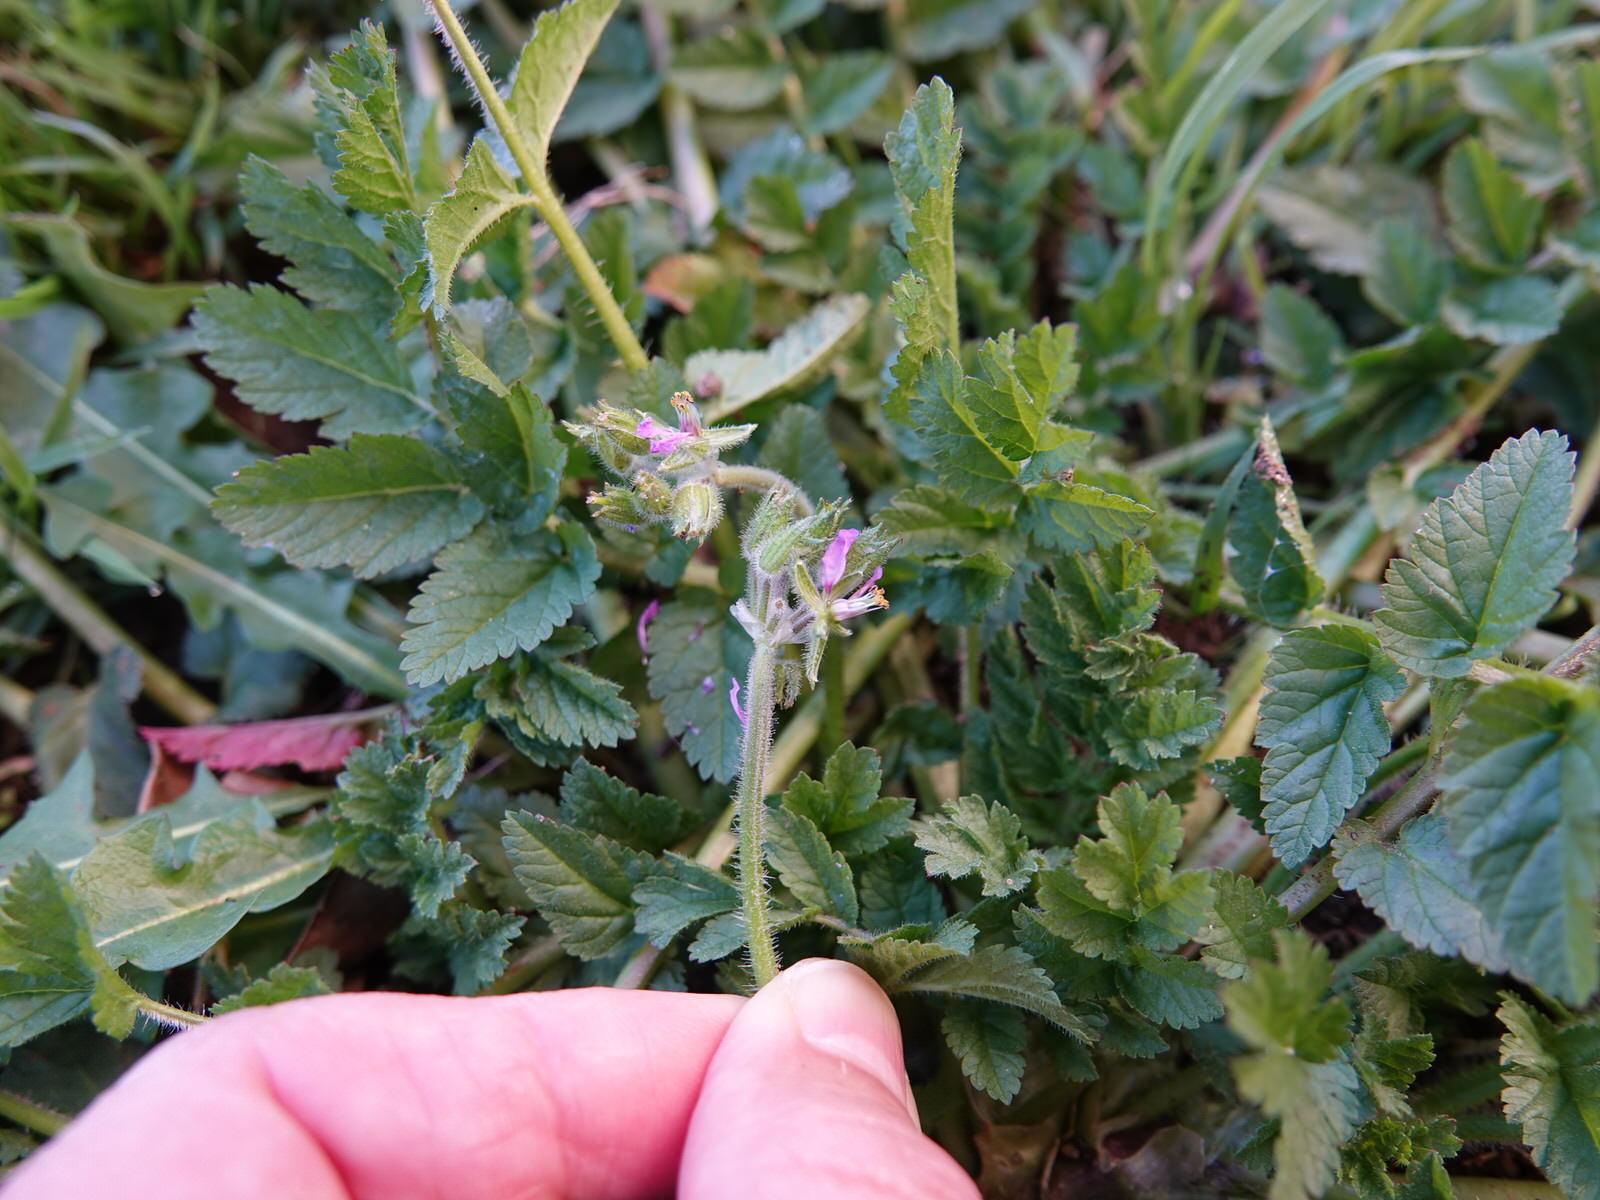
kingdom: Plantae
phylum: Tracheophyta
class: Magnoliopsida
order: Geraniales
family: Geraniaceae
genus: Erodium
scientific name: Erodium moschatum
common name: Musk stork's-bill
